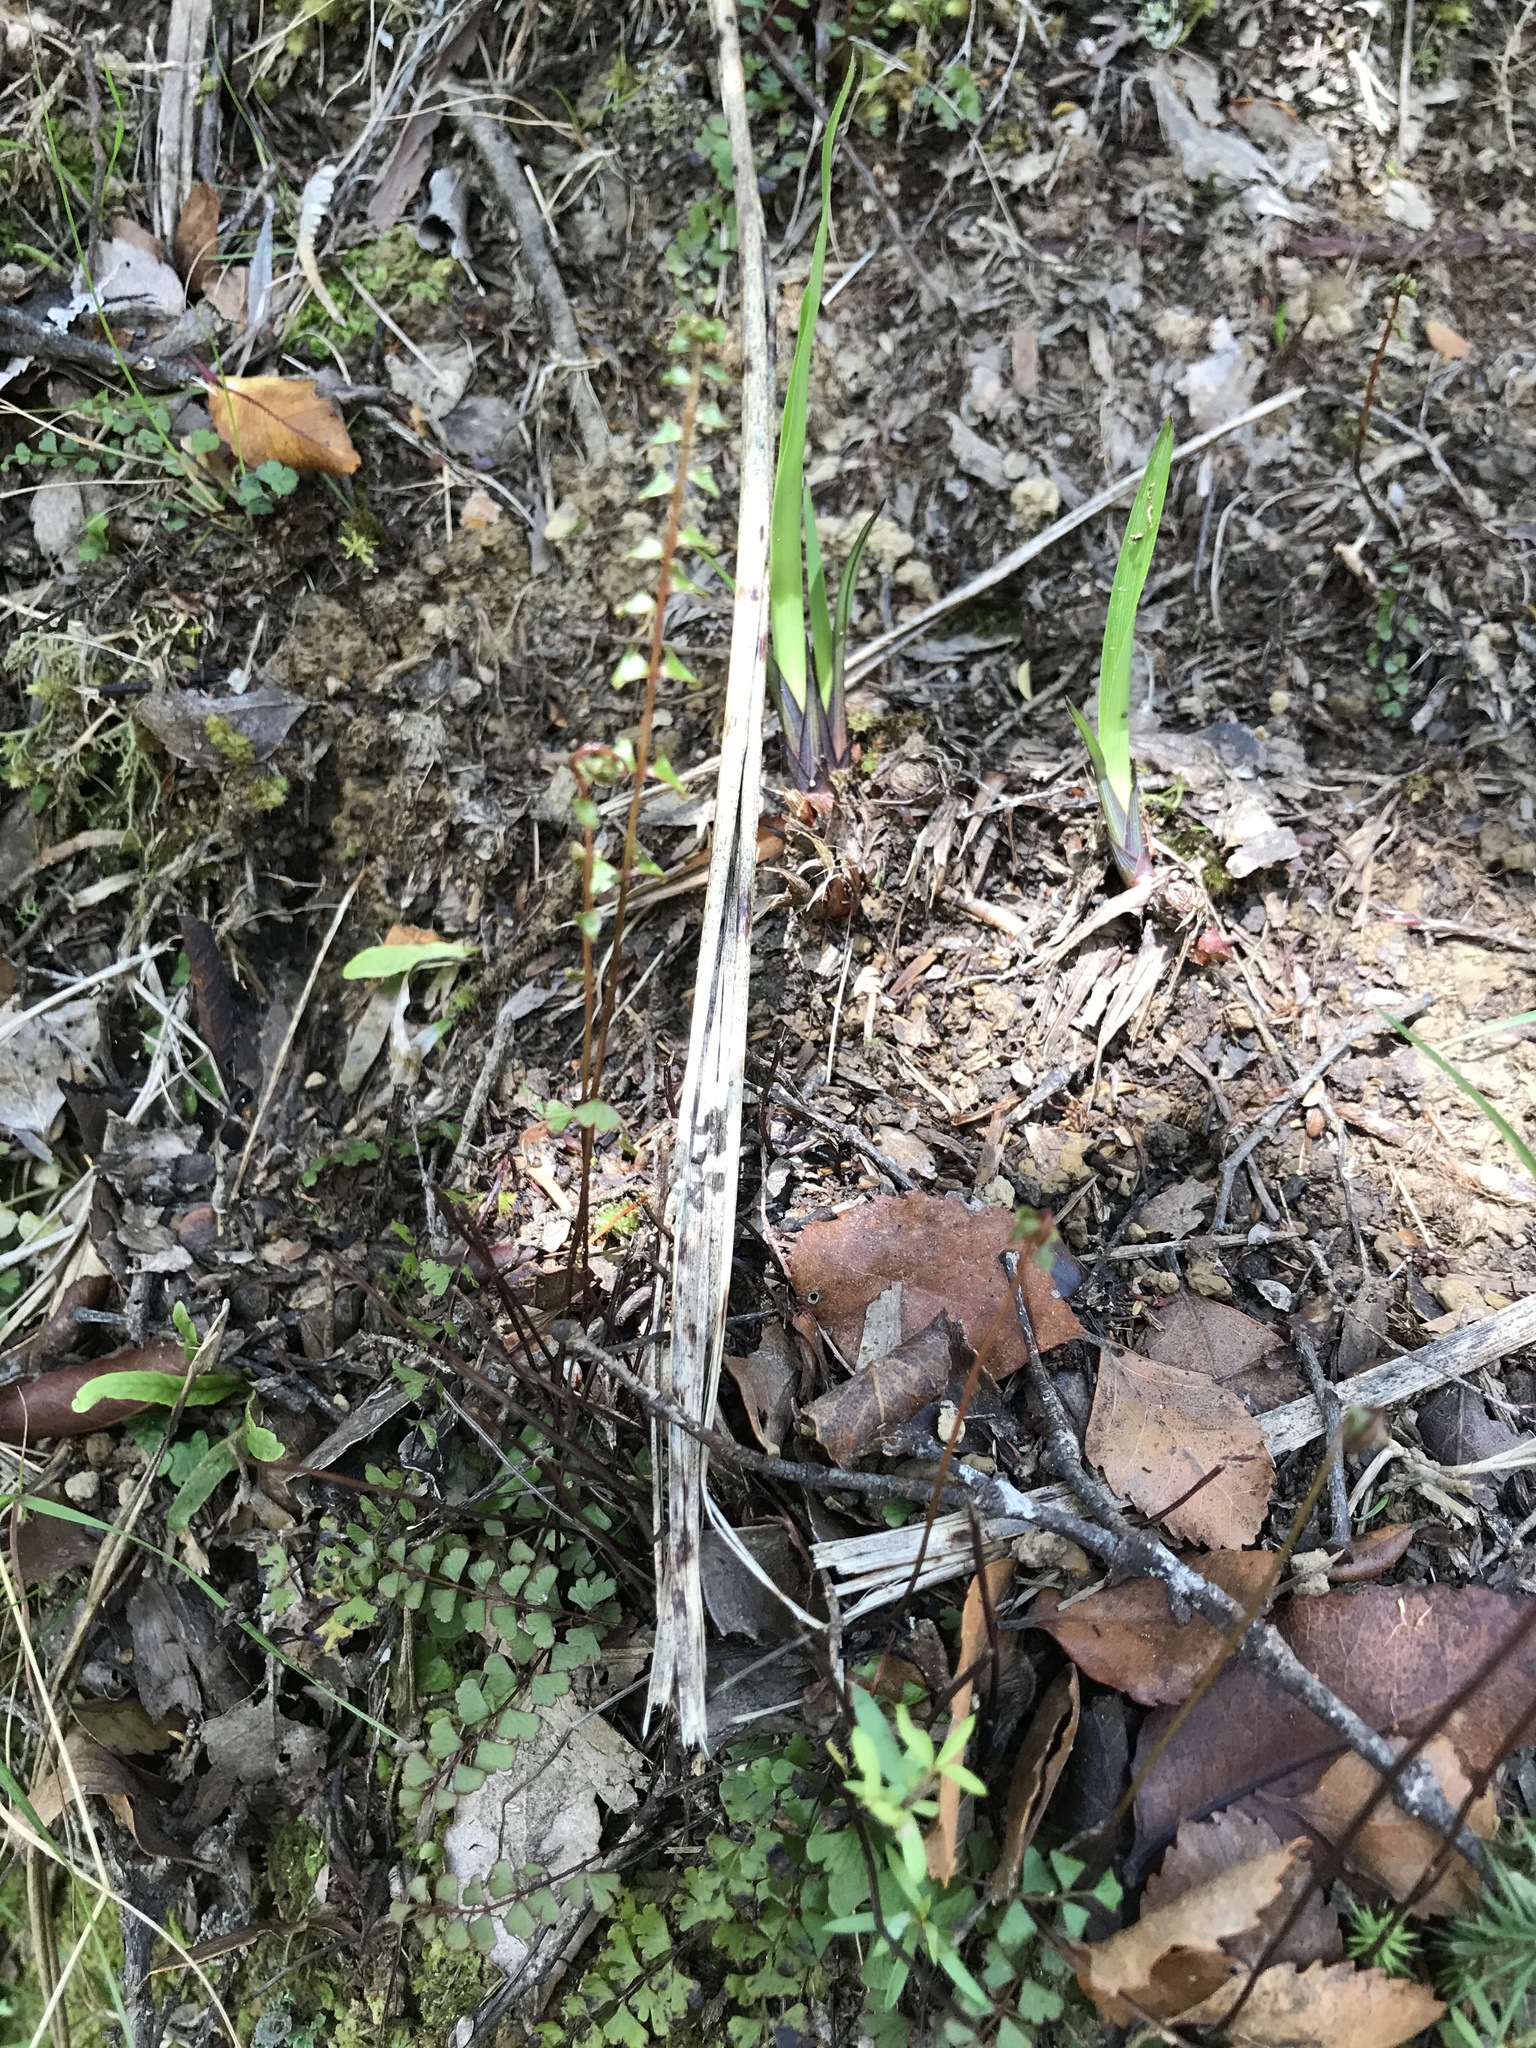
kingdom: Plantae
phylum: Tracheophyta
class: Polypodiopsida
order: Polypodiales
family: Lindsaeaceae
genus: Lindsaea
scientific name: Lindsaea linearis
